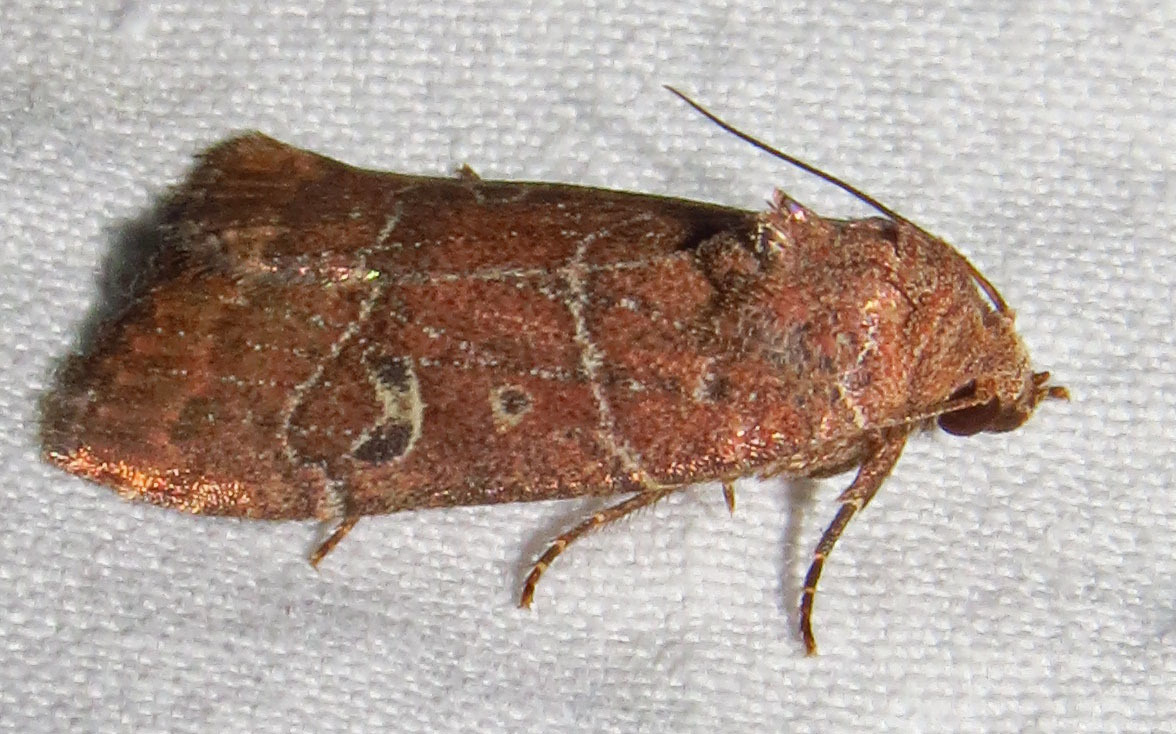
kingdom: Animalia
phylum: Arthropoda
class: Insecta
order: Lepidoptera
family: Noctuidae
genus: Elaphria
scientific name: Elaphria grata
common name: Grateful midget moth
